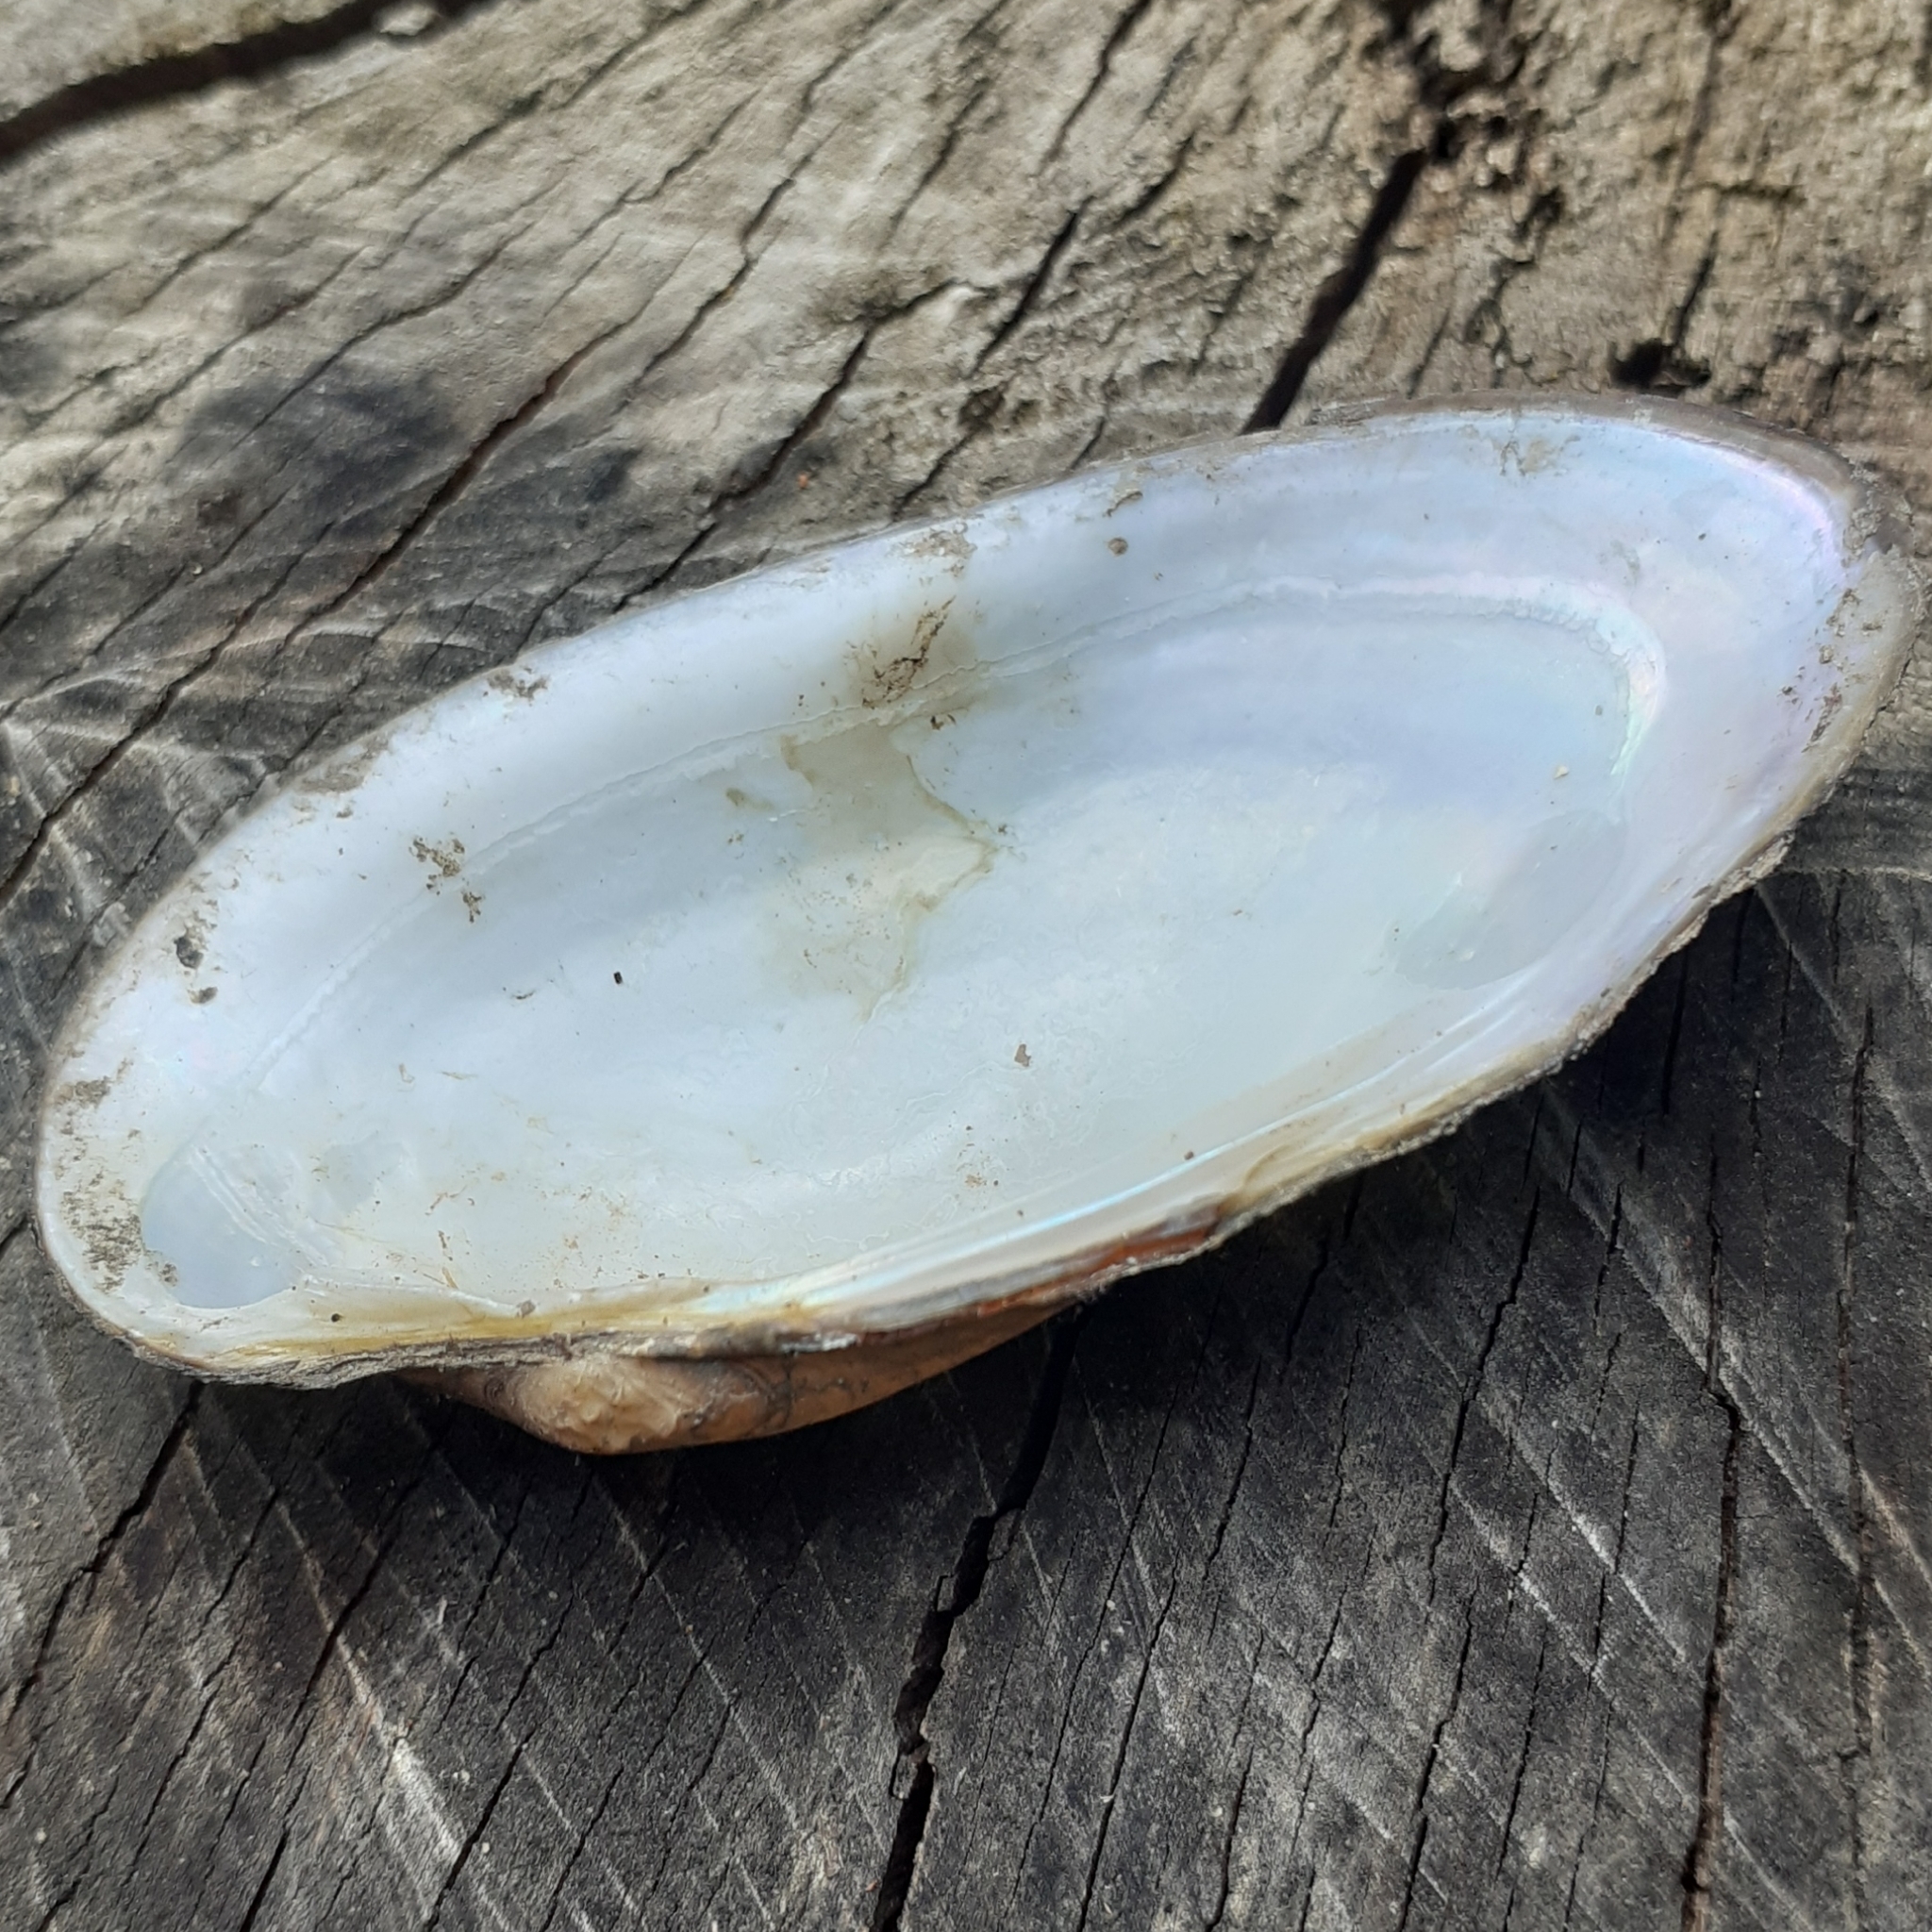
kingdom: Animalia
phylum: Mollusca
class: Bivalvia
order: Unionida
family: Unionidae
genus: Unio
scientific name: Unio pictorum
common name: Painter's mussel
